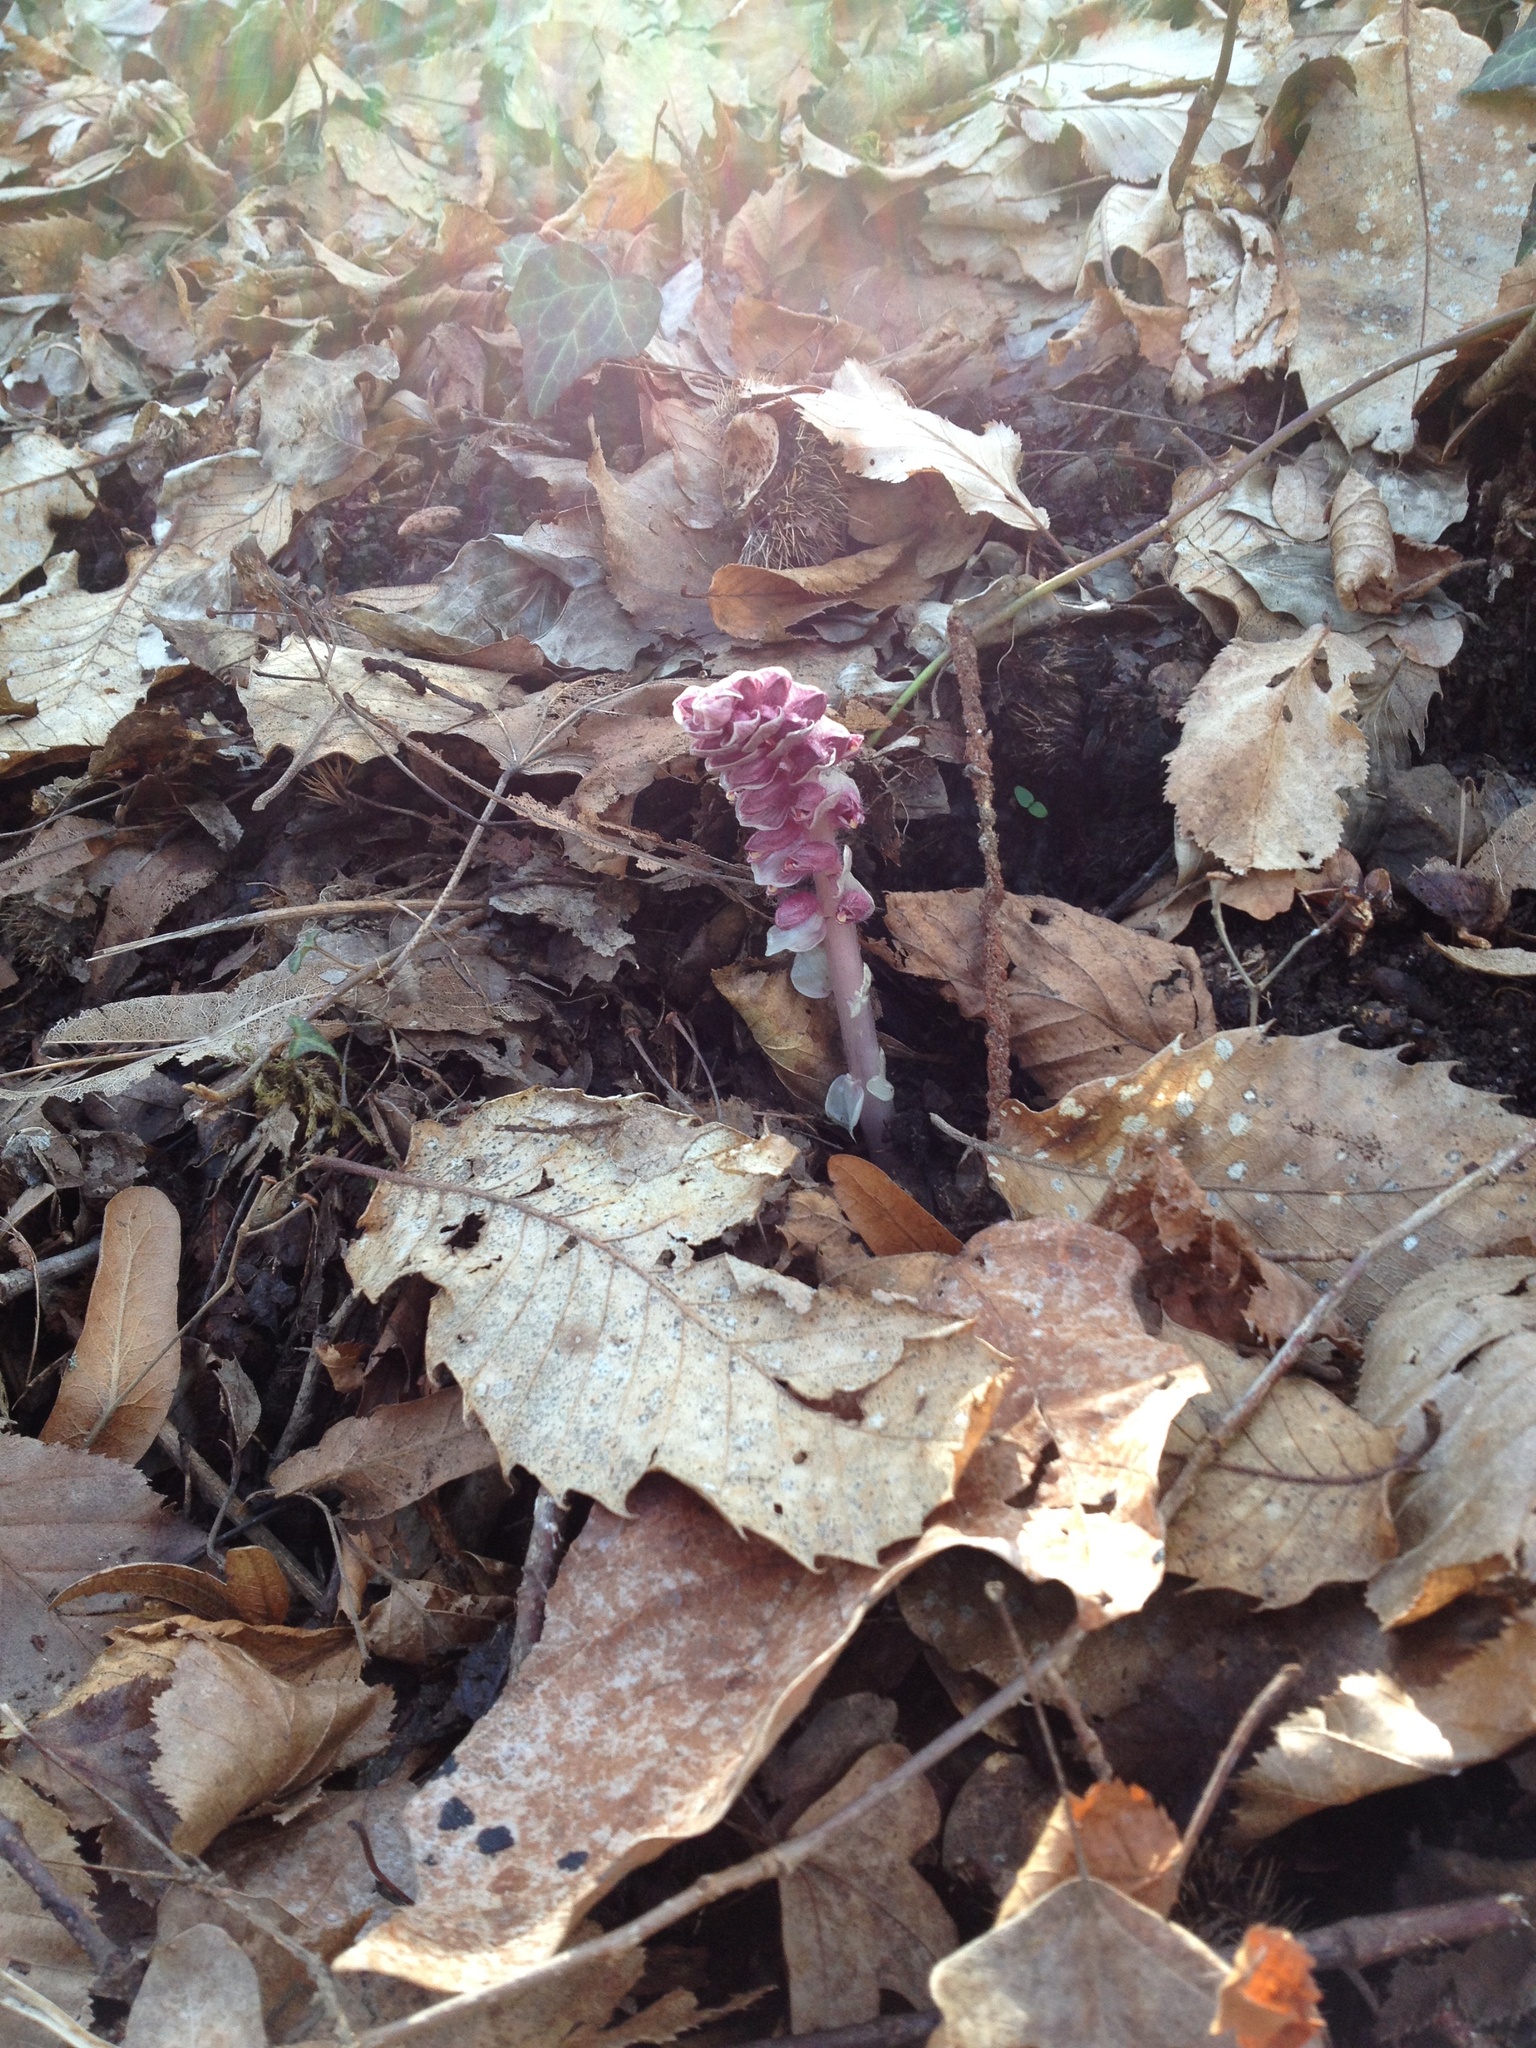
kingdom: Plantae
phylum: Tracheophyta
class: Magnoliopsida
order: Lamiales
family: Orobanchaceae
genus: Lathraea
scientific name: Lathraea squamaria
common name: Toothwort
